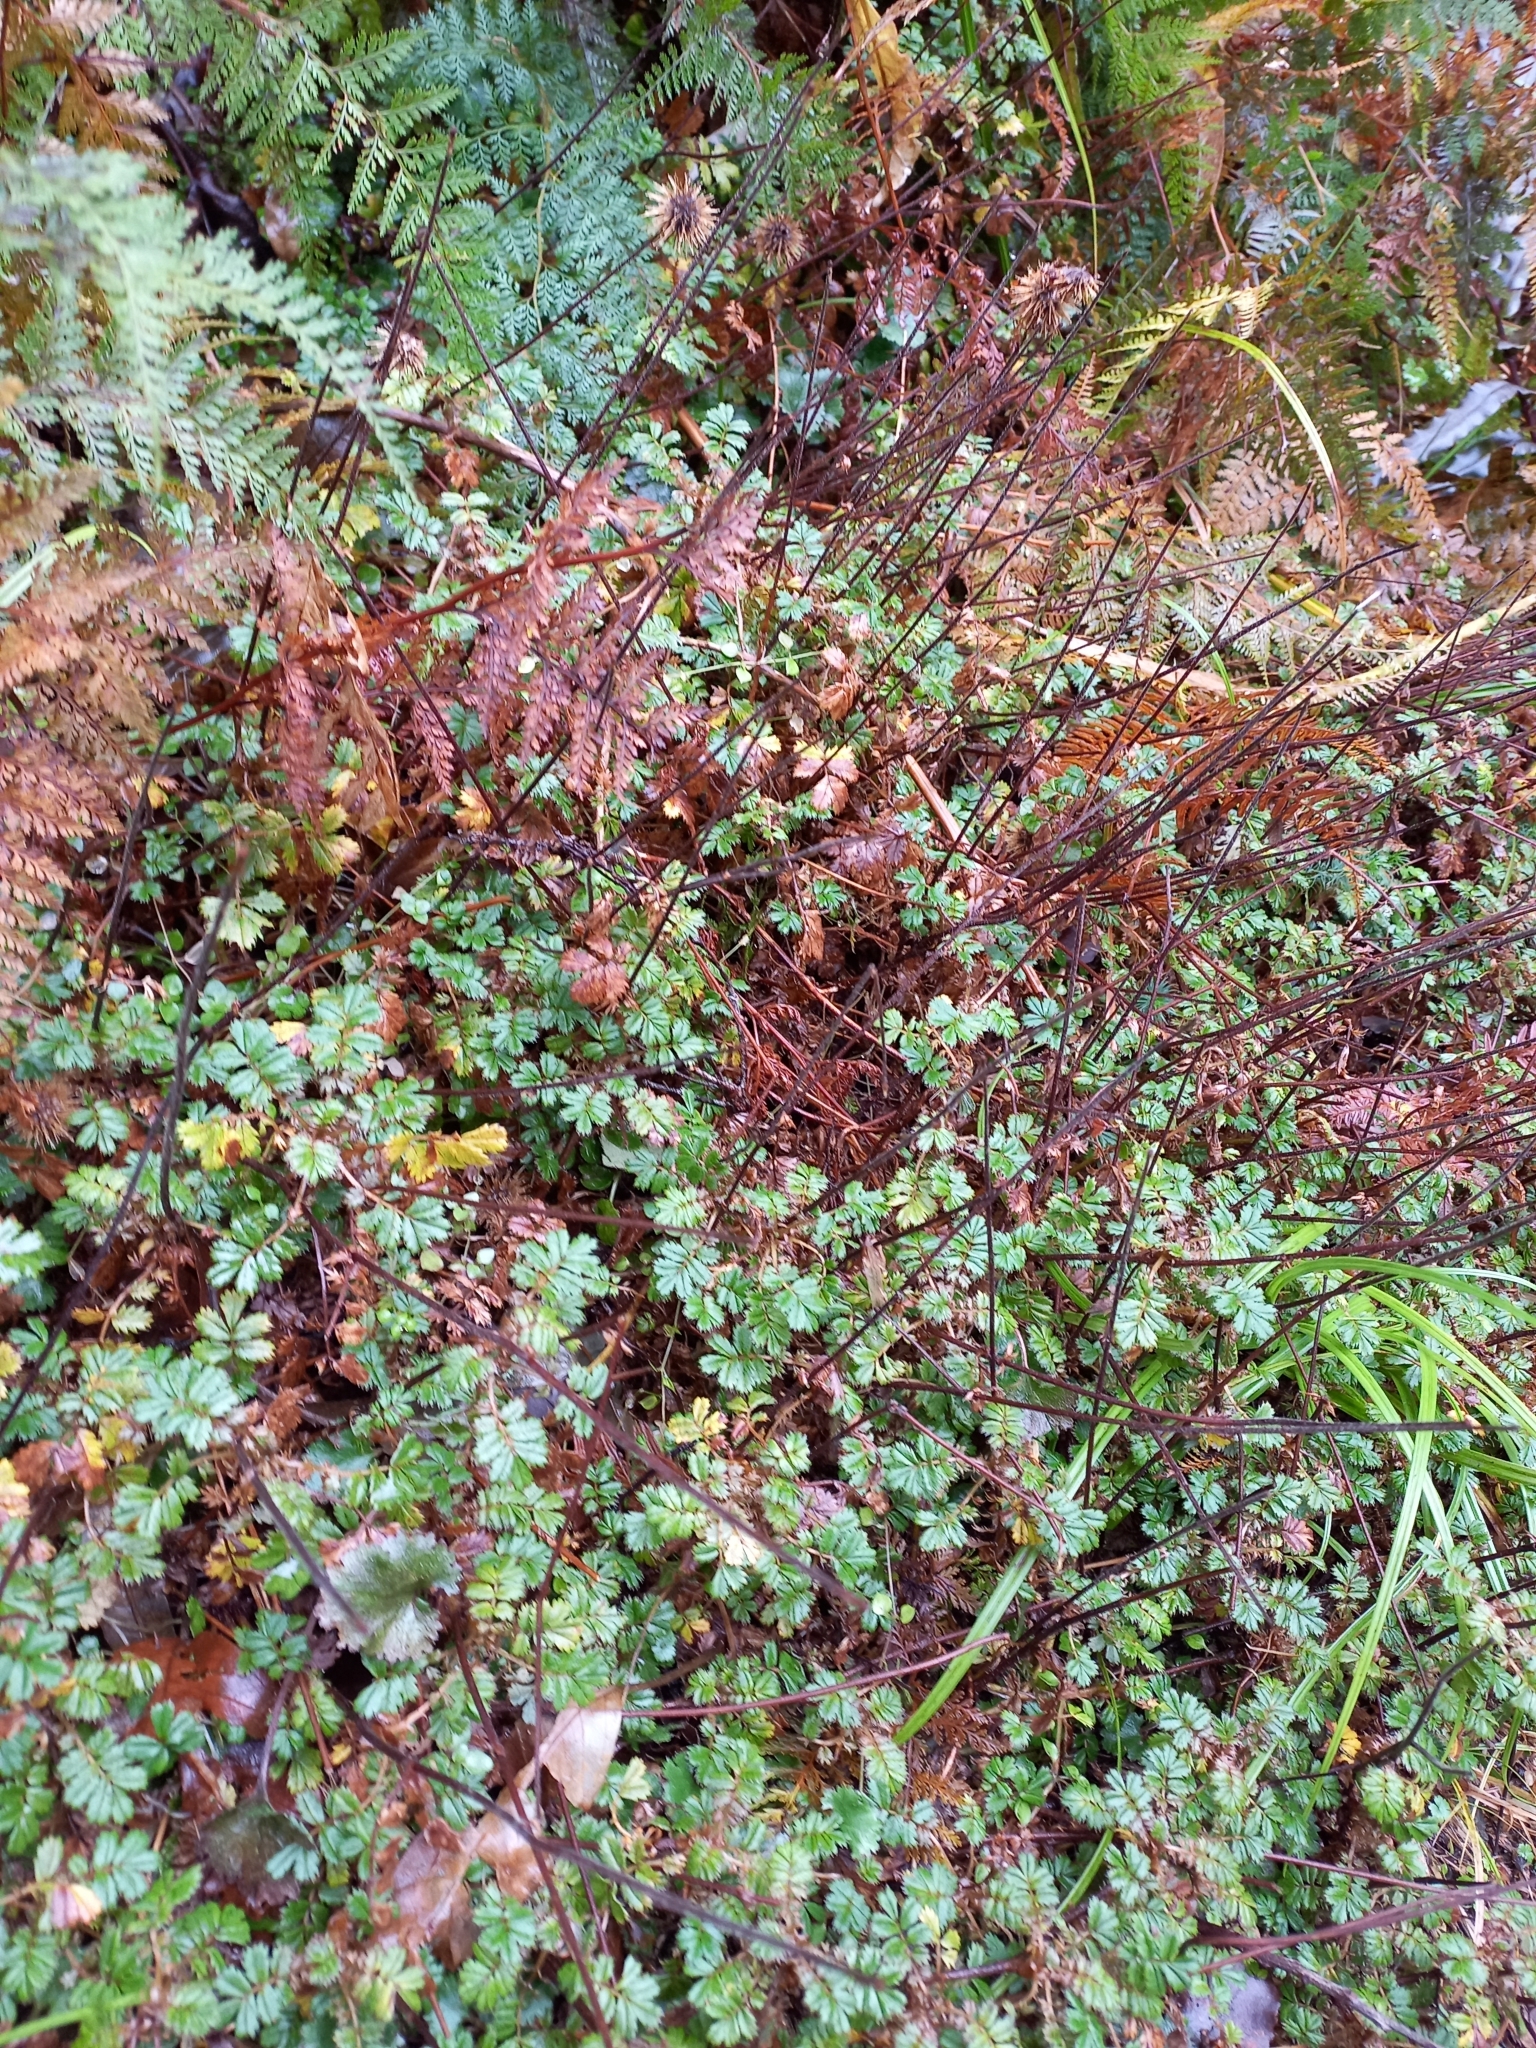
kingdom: Plantae
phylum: Tracheophyta
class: Magnoliopsida
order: Rosales
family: Rosaceae
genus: Acaena
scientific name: Acaena anserinifolia
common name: Bronze pirri-pirri-bur
